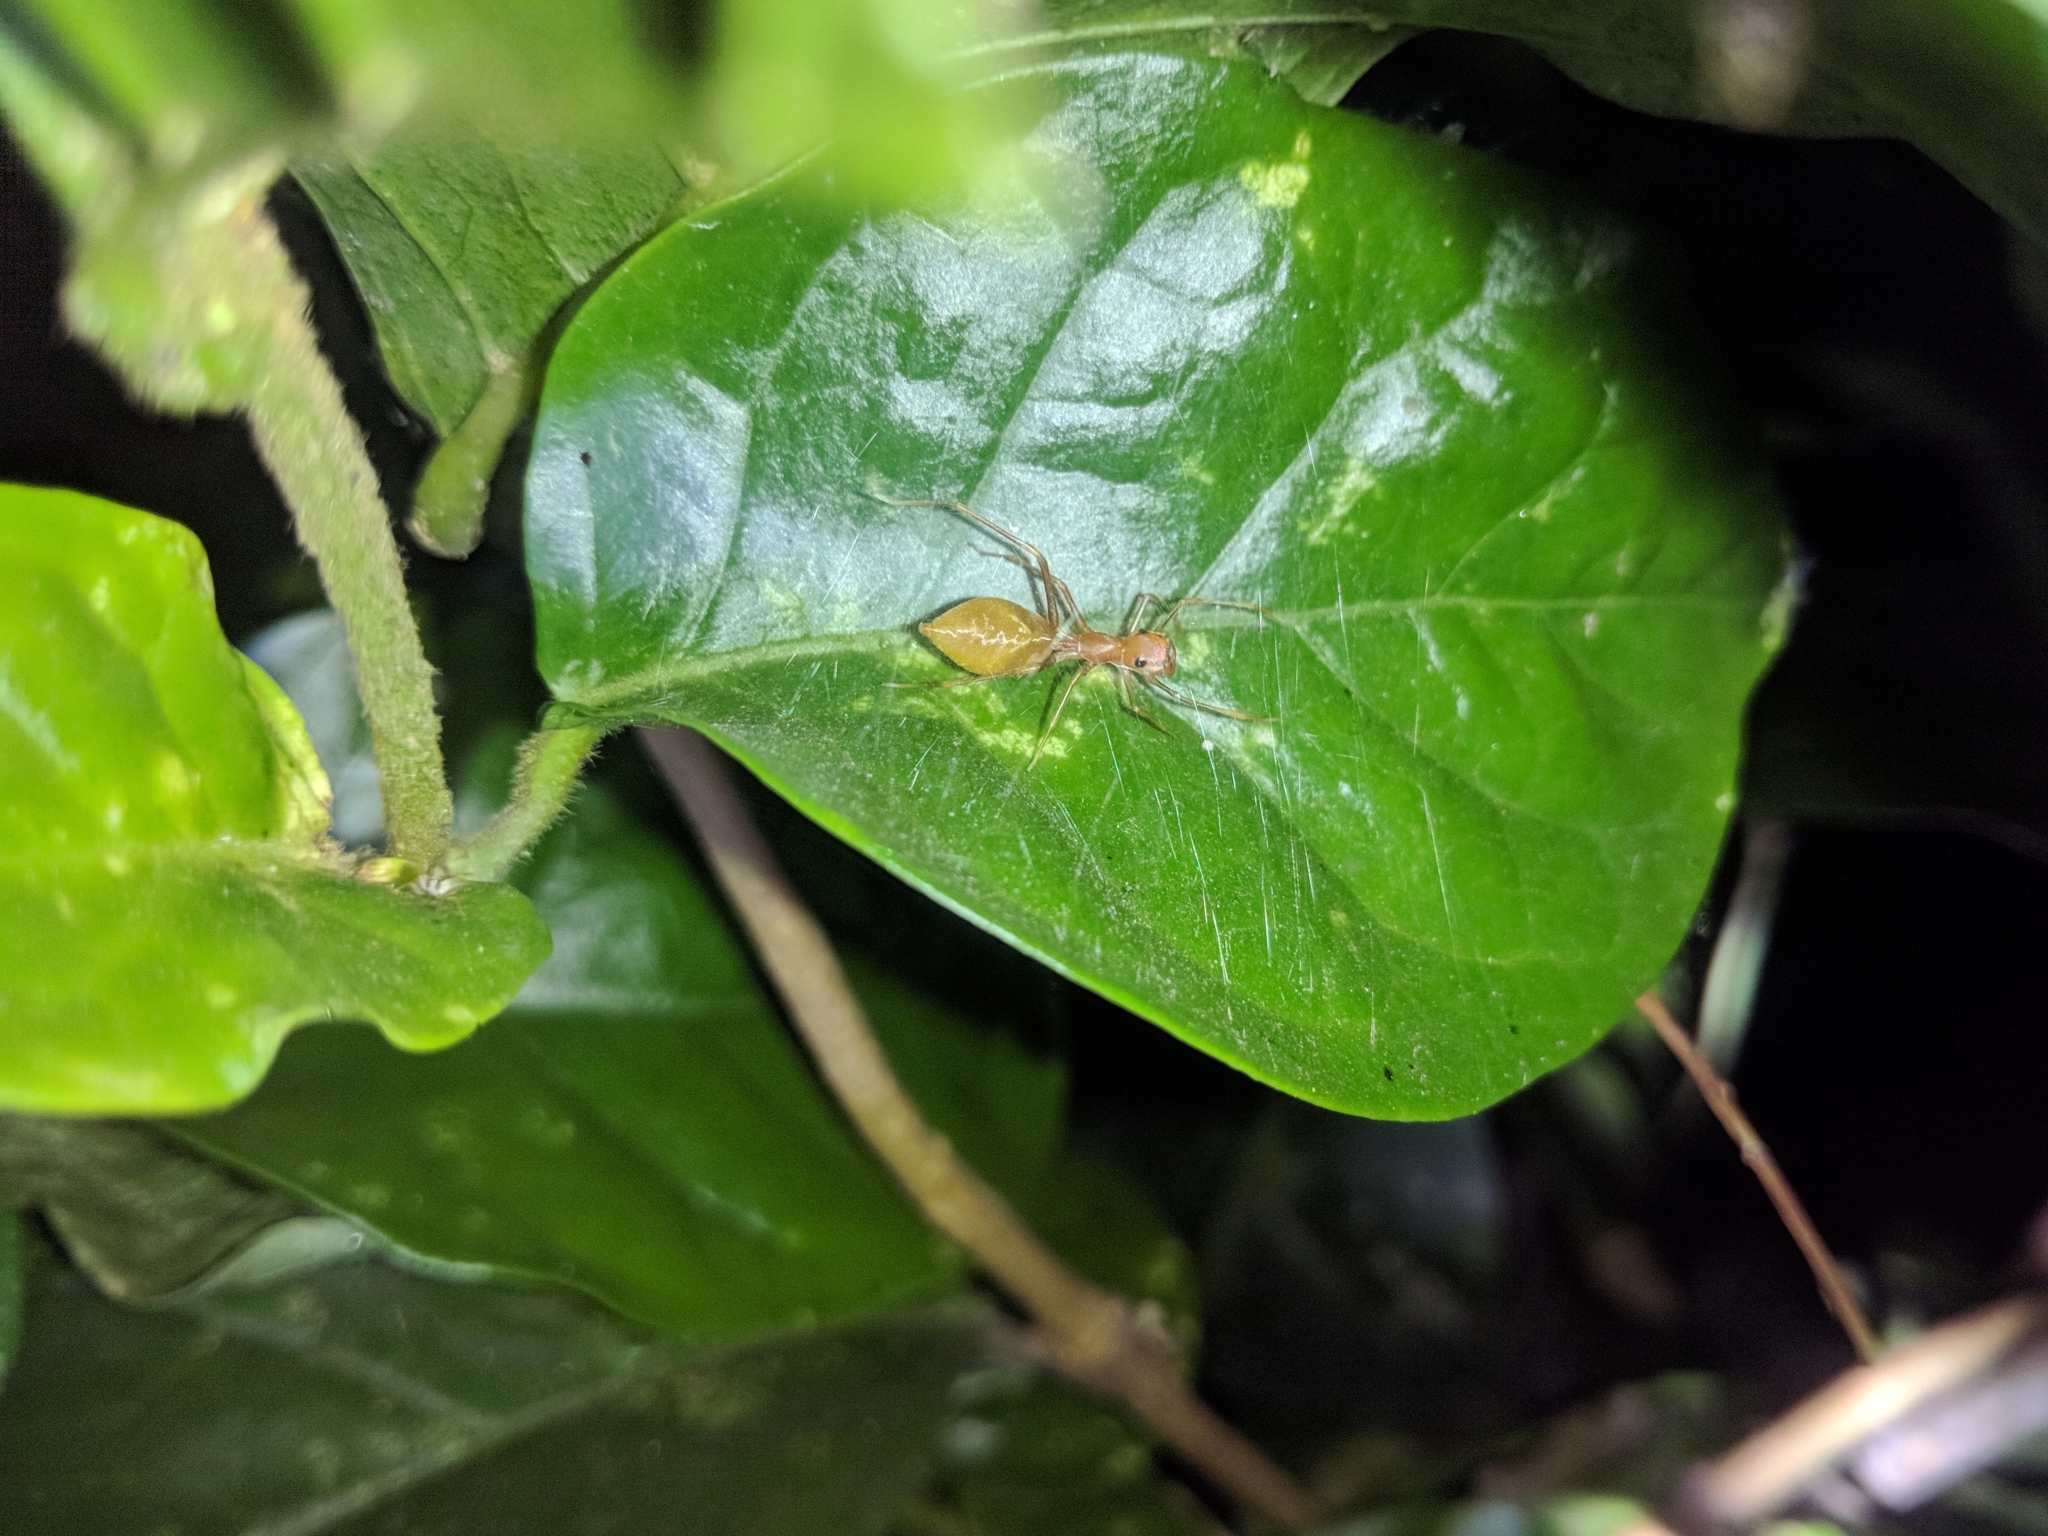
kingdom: Animalia
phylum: Arthropoda
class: Arachnida
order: Araneae
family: Salticidae
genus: Myrmaplata
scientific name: Myrmaplata plataleoides
